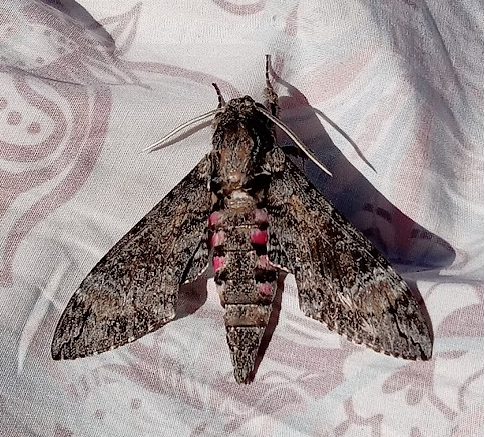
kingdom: Animalia
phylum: Arthropoda
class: Insecta
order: Lepidoptera
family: Sphingidae
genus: Agrius
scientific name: Agrius cingulata
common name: Pink-spotted hawkmoth
